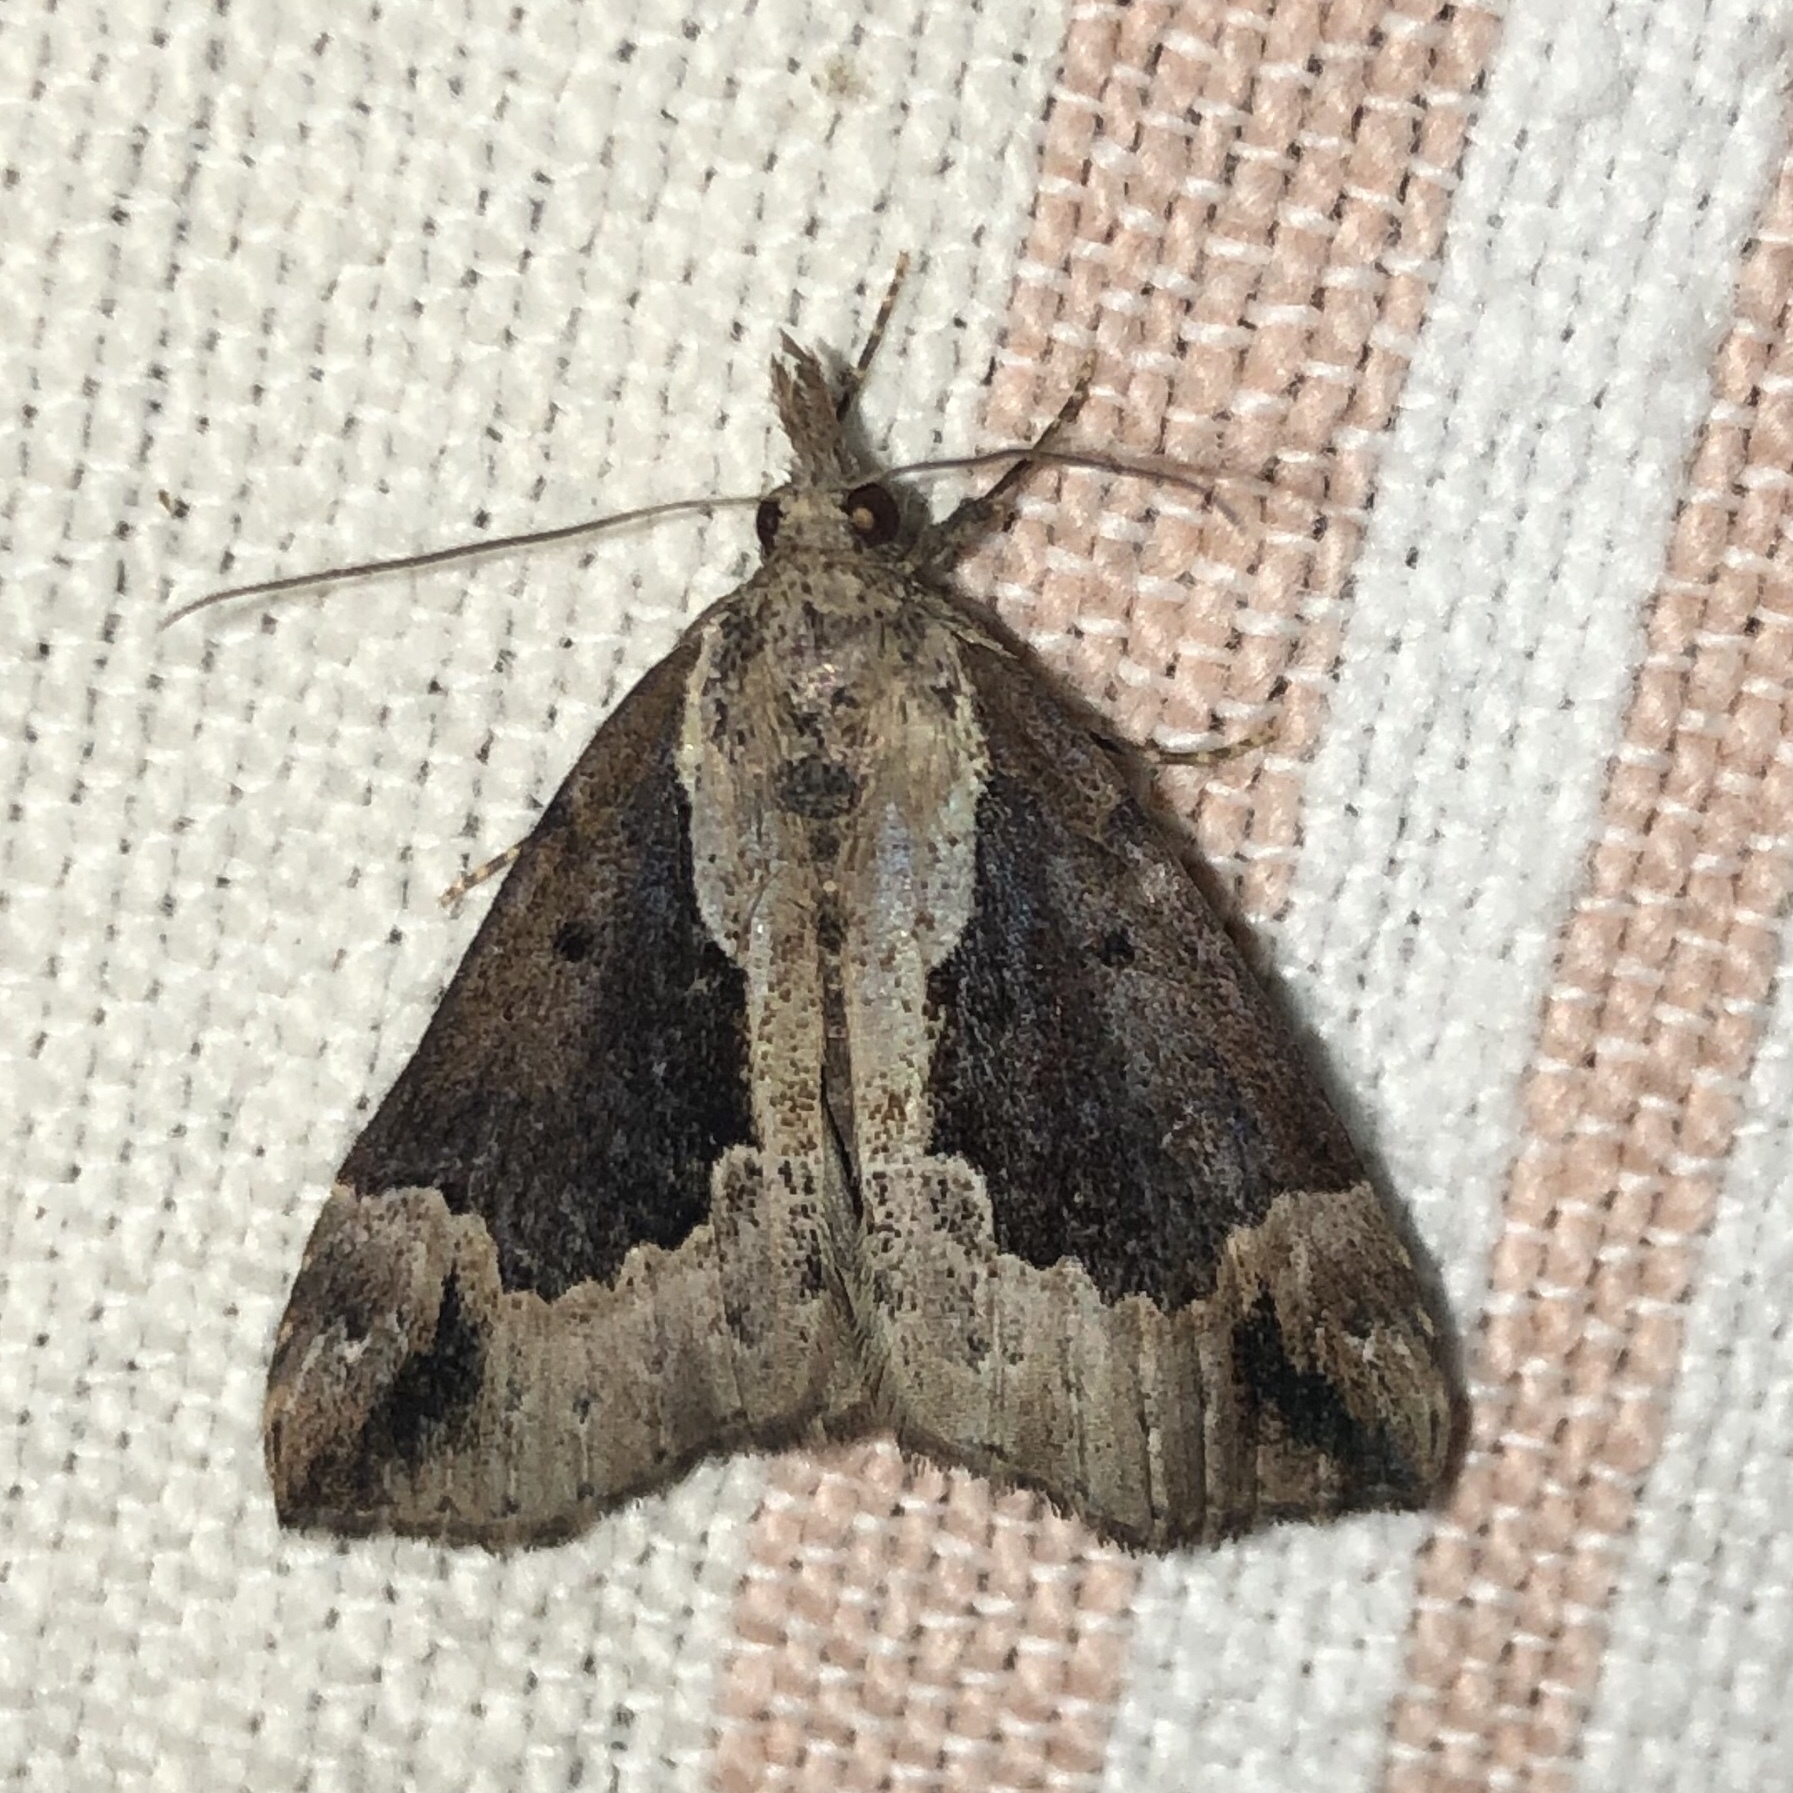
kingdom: Animalia
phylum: Arthropoda
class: Insecta
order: Lepidoptera
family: Erebidae
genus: Hypena
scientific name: Hypena baltimoralis
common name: Baltimore snout
